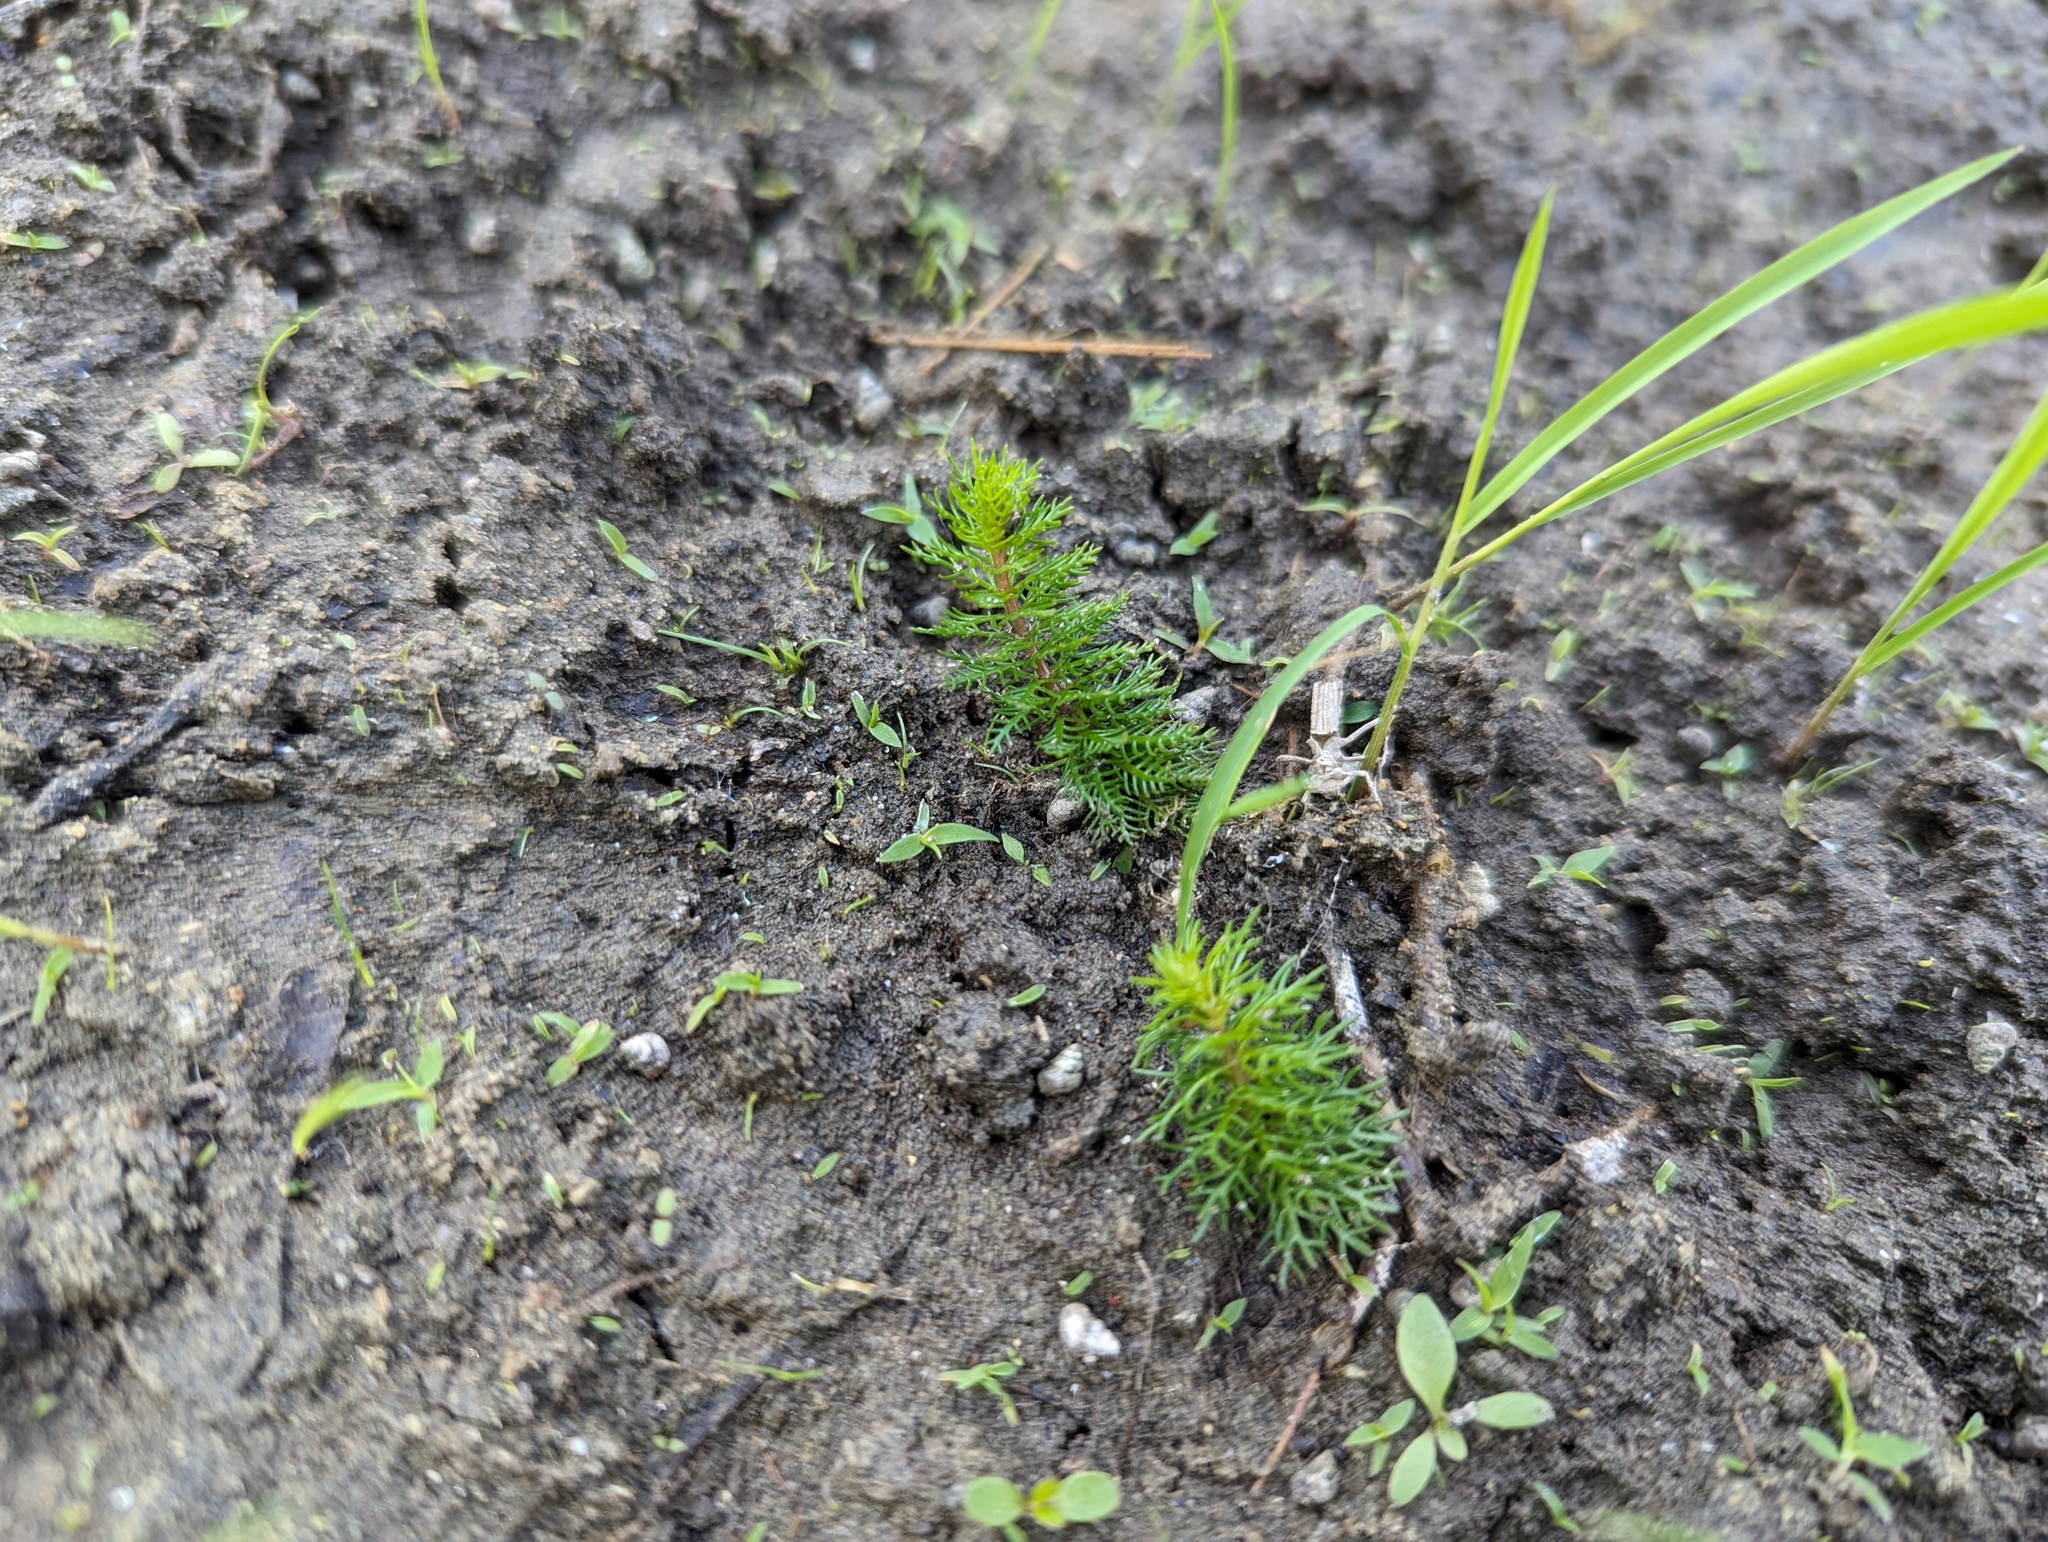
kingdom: Plantae
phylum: Tracheophyta
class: Magnoliopsida
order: Saxifragales
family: Haloragaceae
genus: Myriophyllum
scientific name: Myriophyllum verticillatum
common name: Whorled water-milfoil
